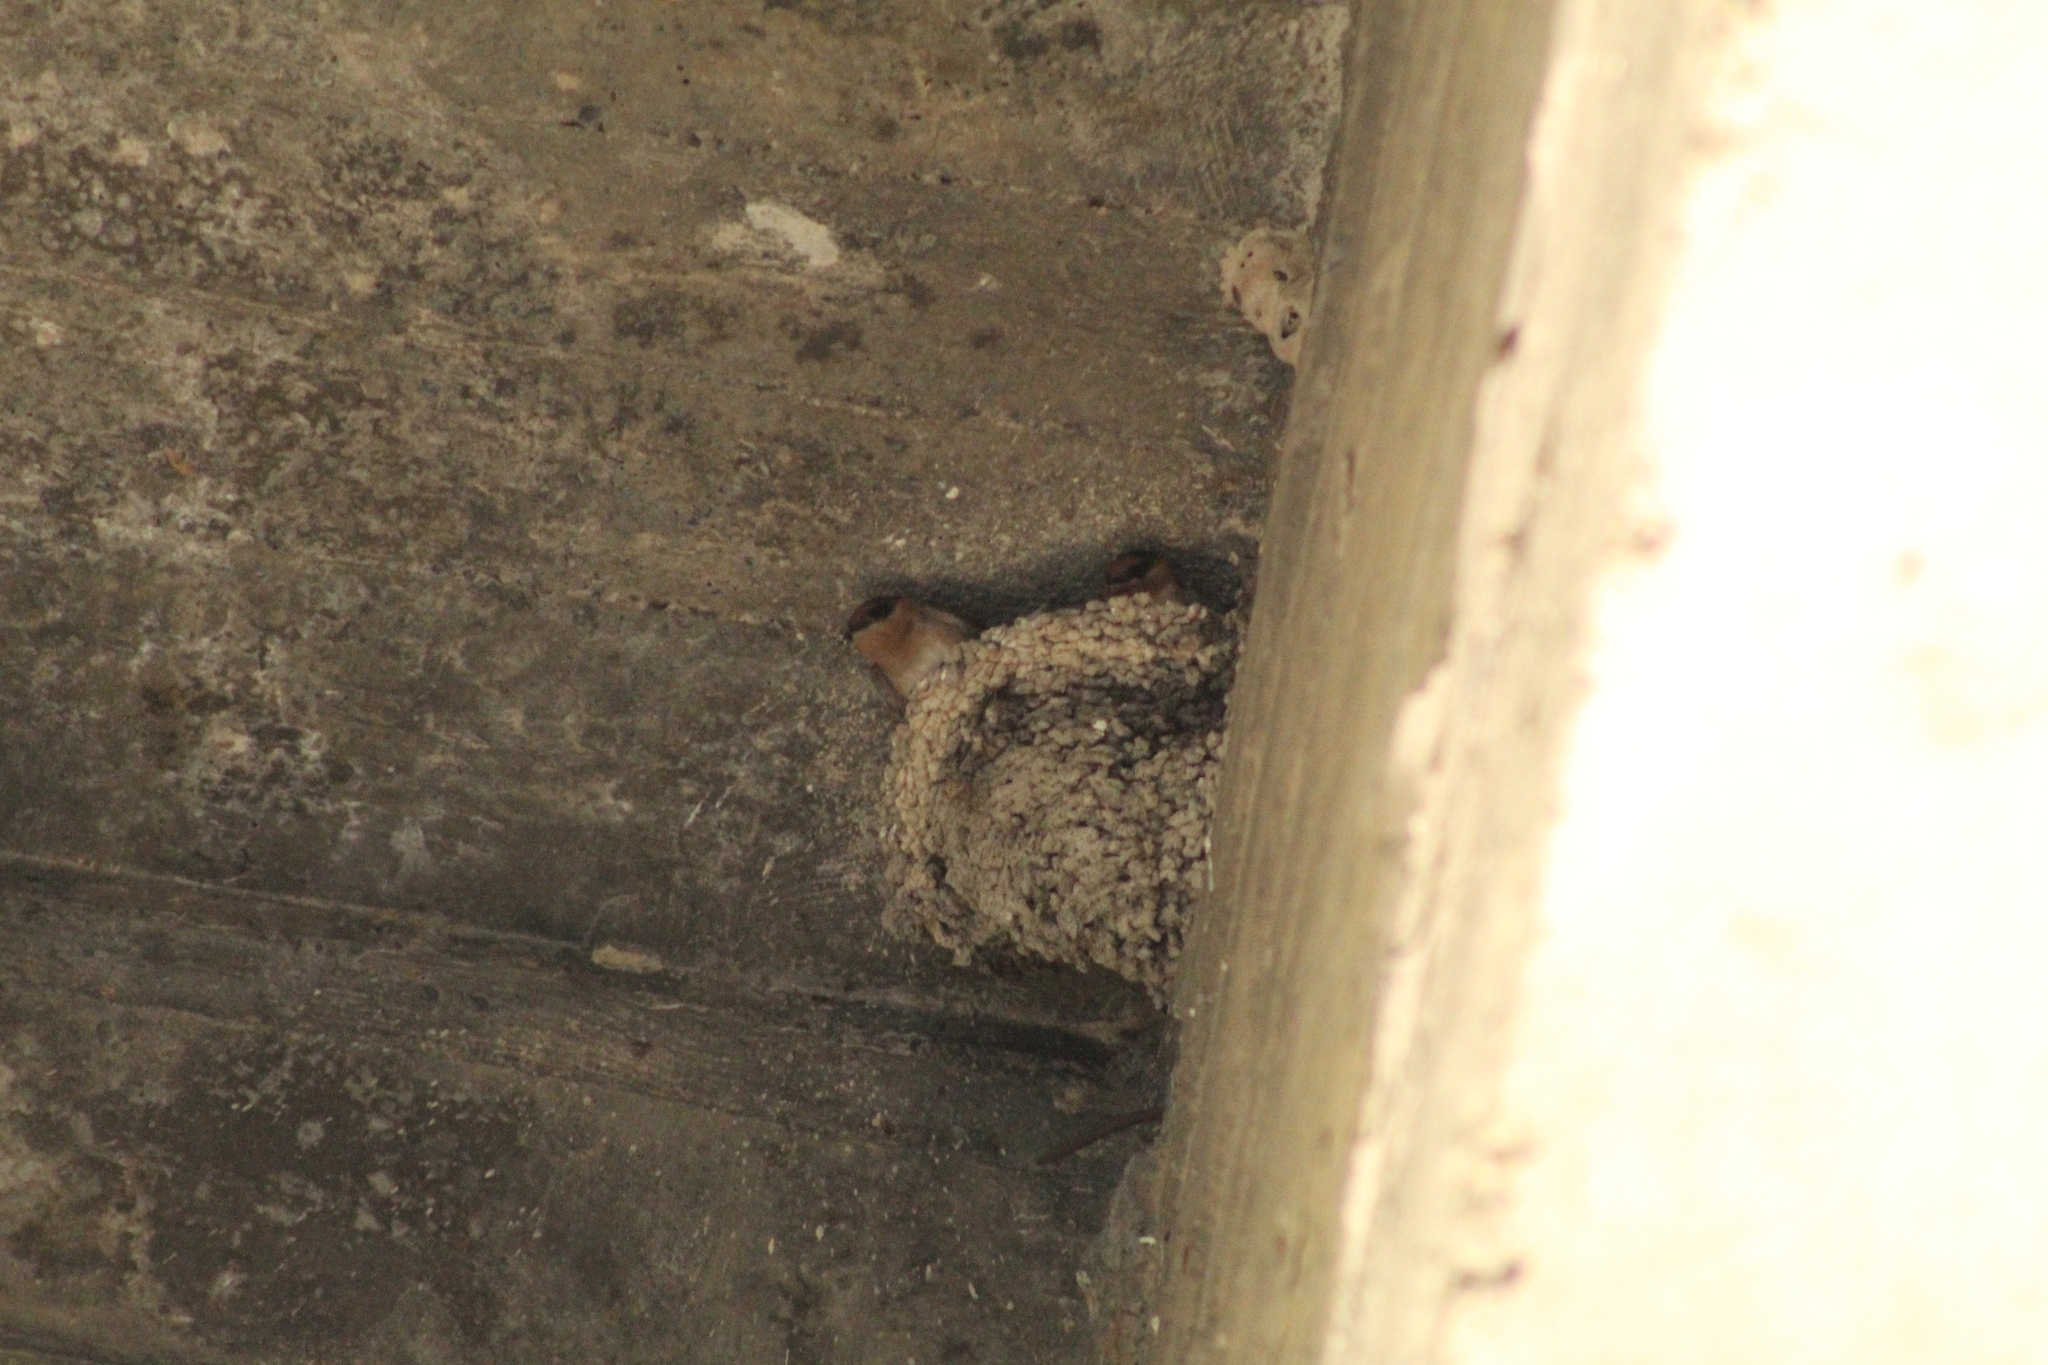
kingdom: Animalia
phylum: Chordata
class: Aves
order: Passeriformes
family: Hirundinidae
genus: Petrochelidon
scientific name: Petrochelidon fulva
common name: Cave swallow
